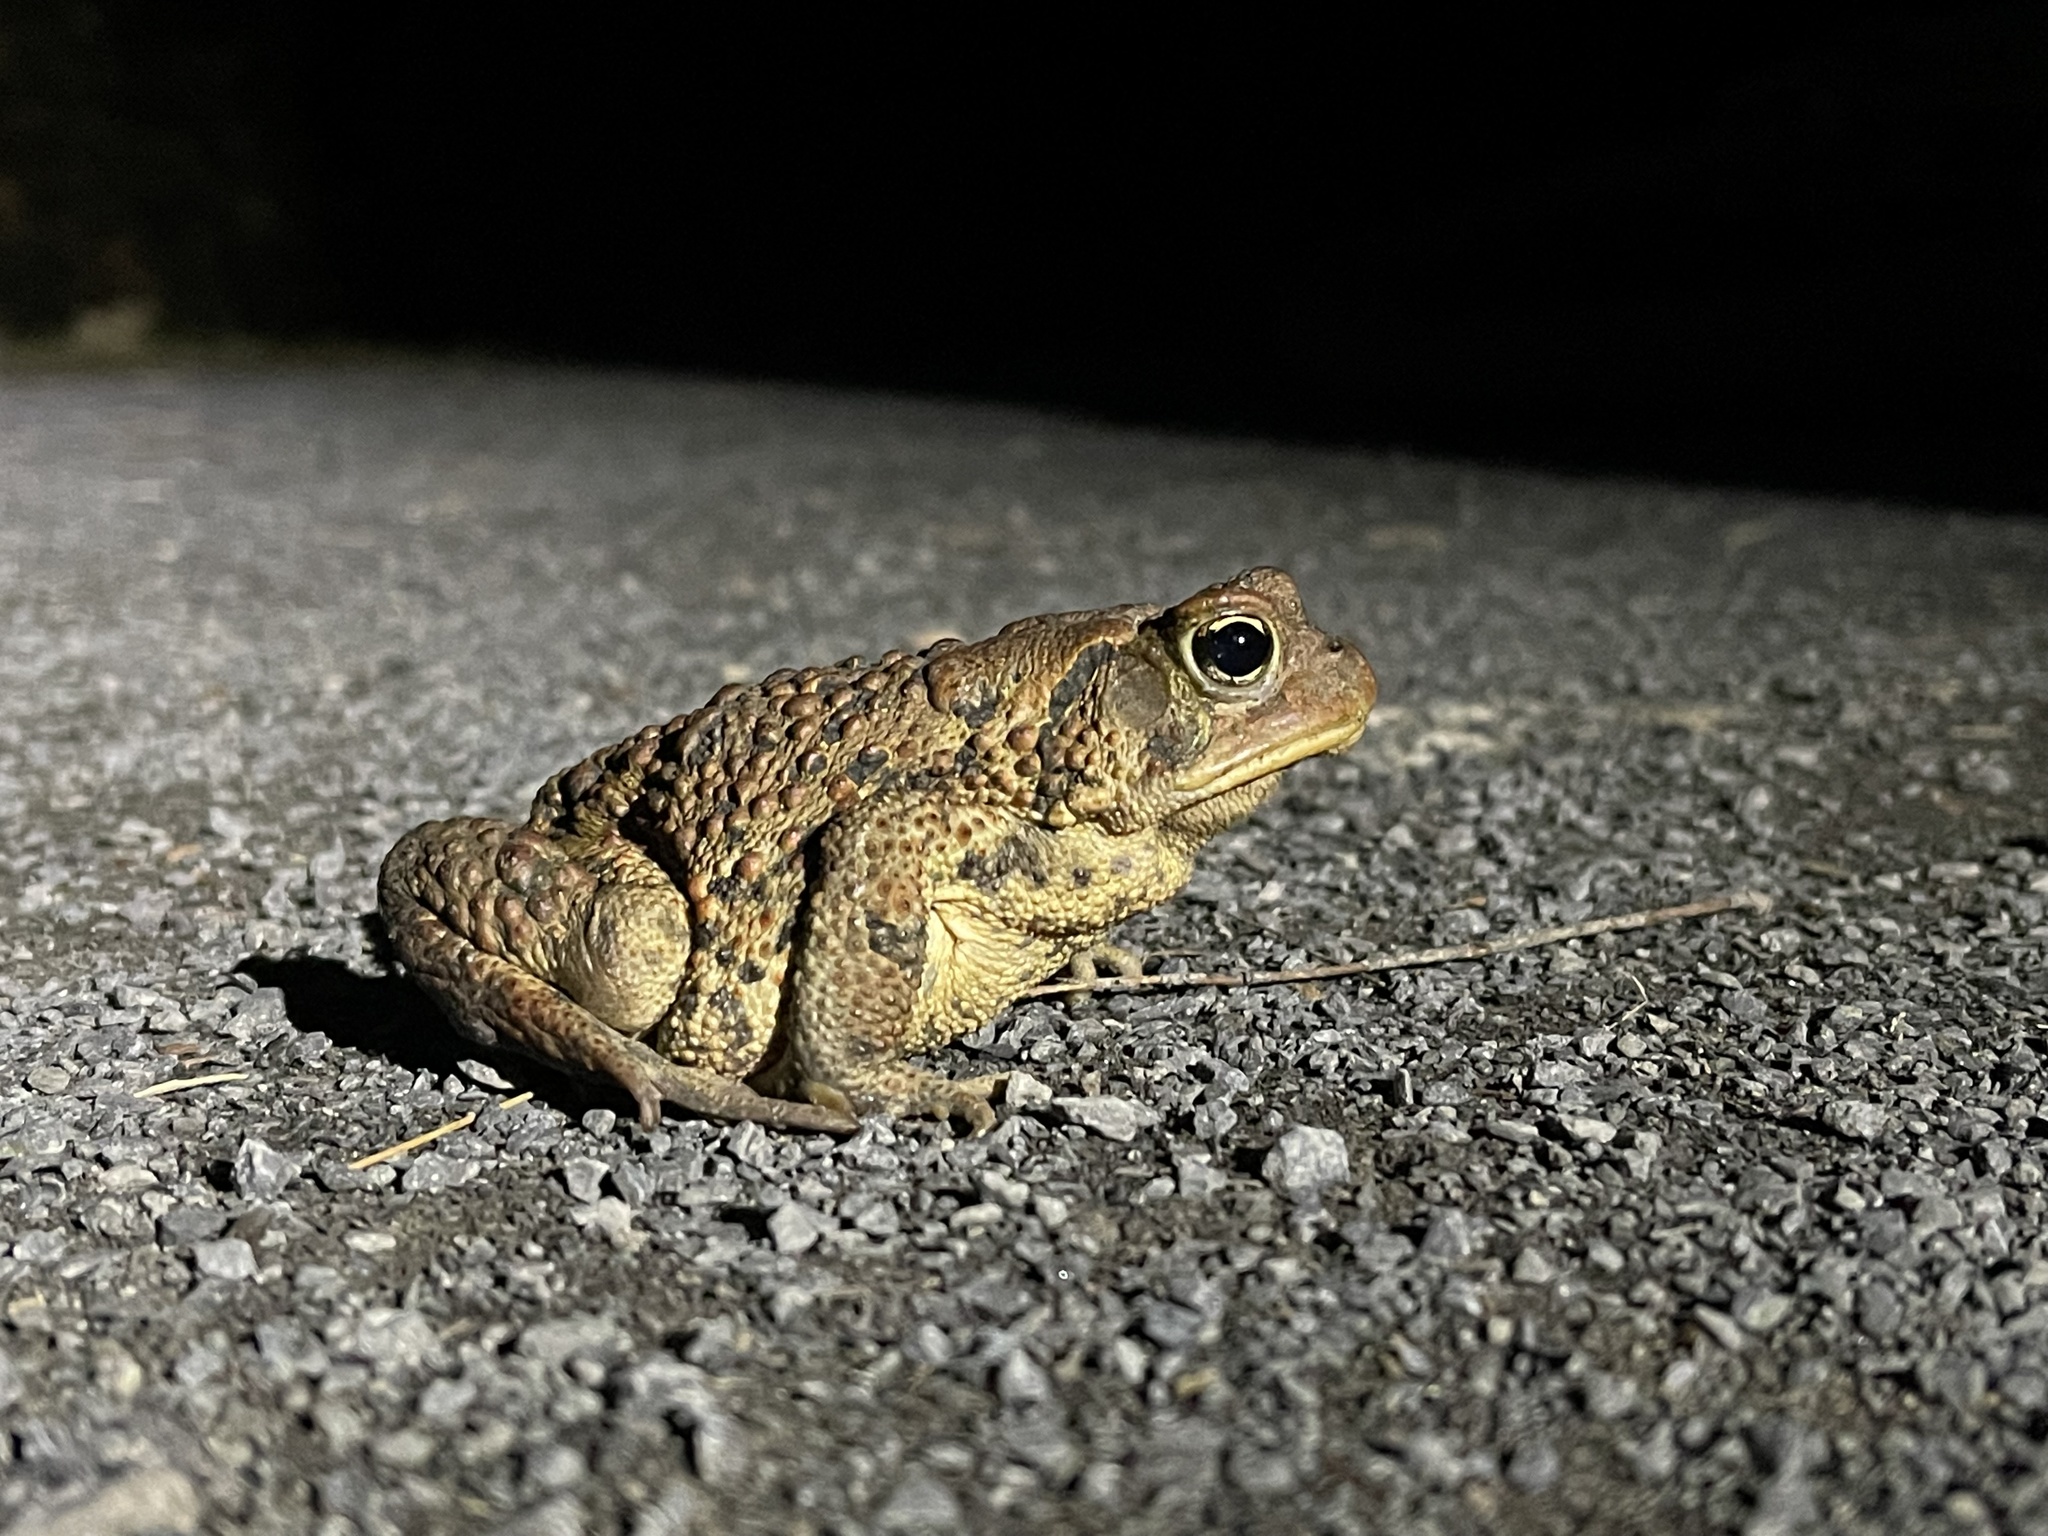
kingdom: Animalia
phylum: Chordata
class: Amphibia
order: Anura
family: Bufonidae
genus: Anaxyrus
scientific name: Anaxyrus americanus
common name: American toad
